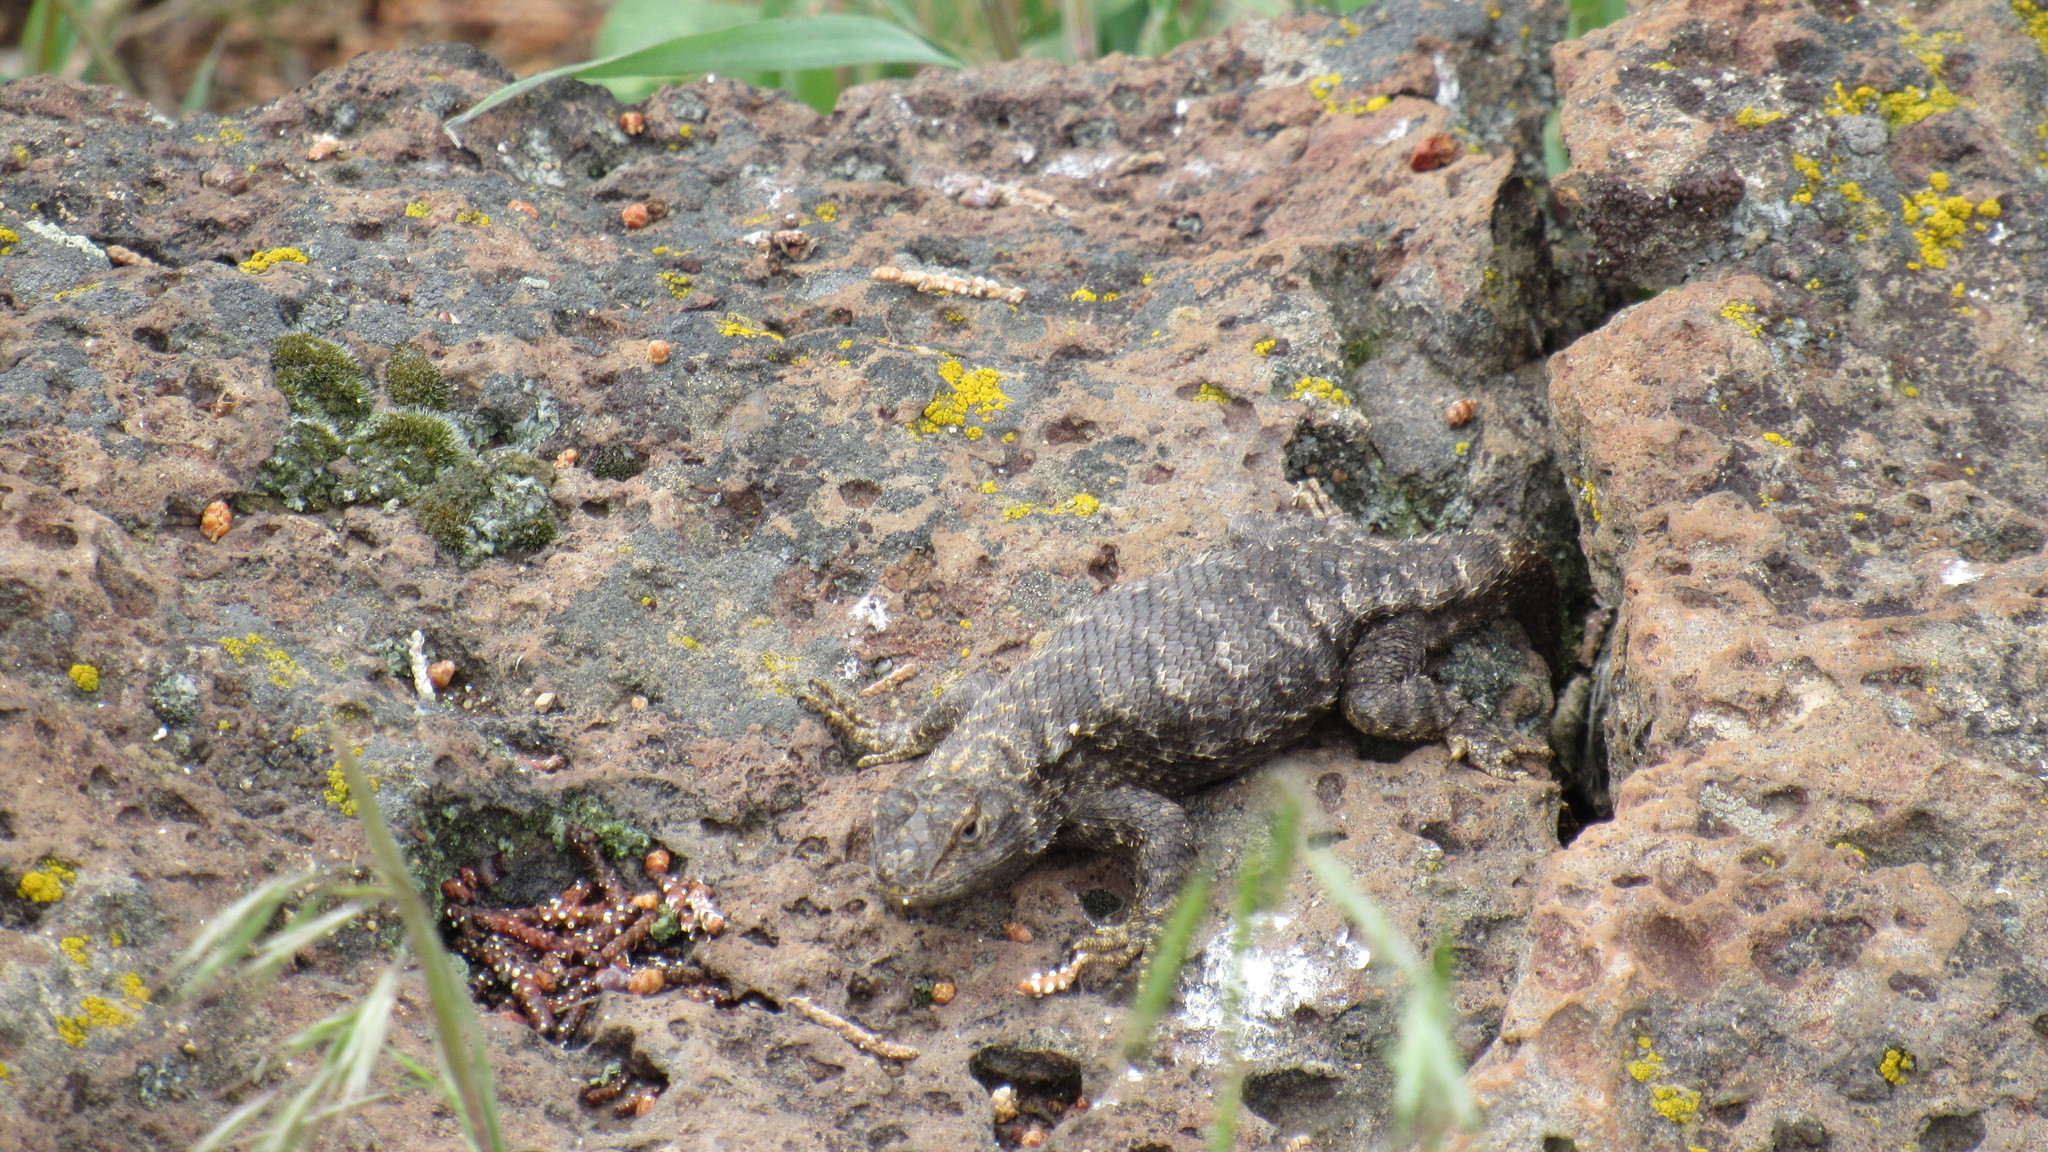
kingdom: Animalia
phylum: Chordata
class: Squamata
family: Phrynosomatidae
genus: Sceloporus
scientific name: Sceloporus occidentalis
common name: Western fence lizard
